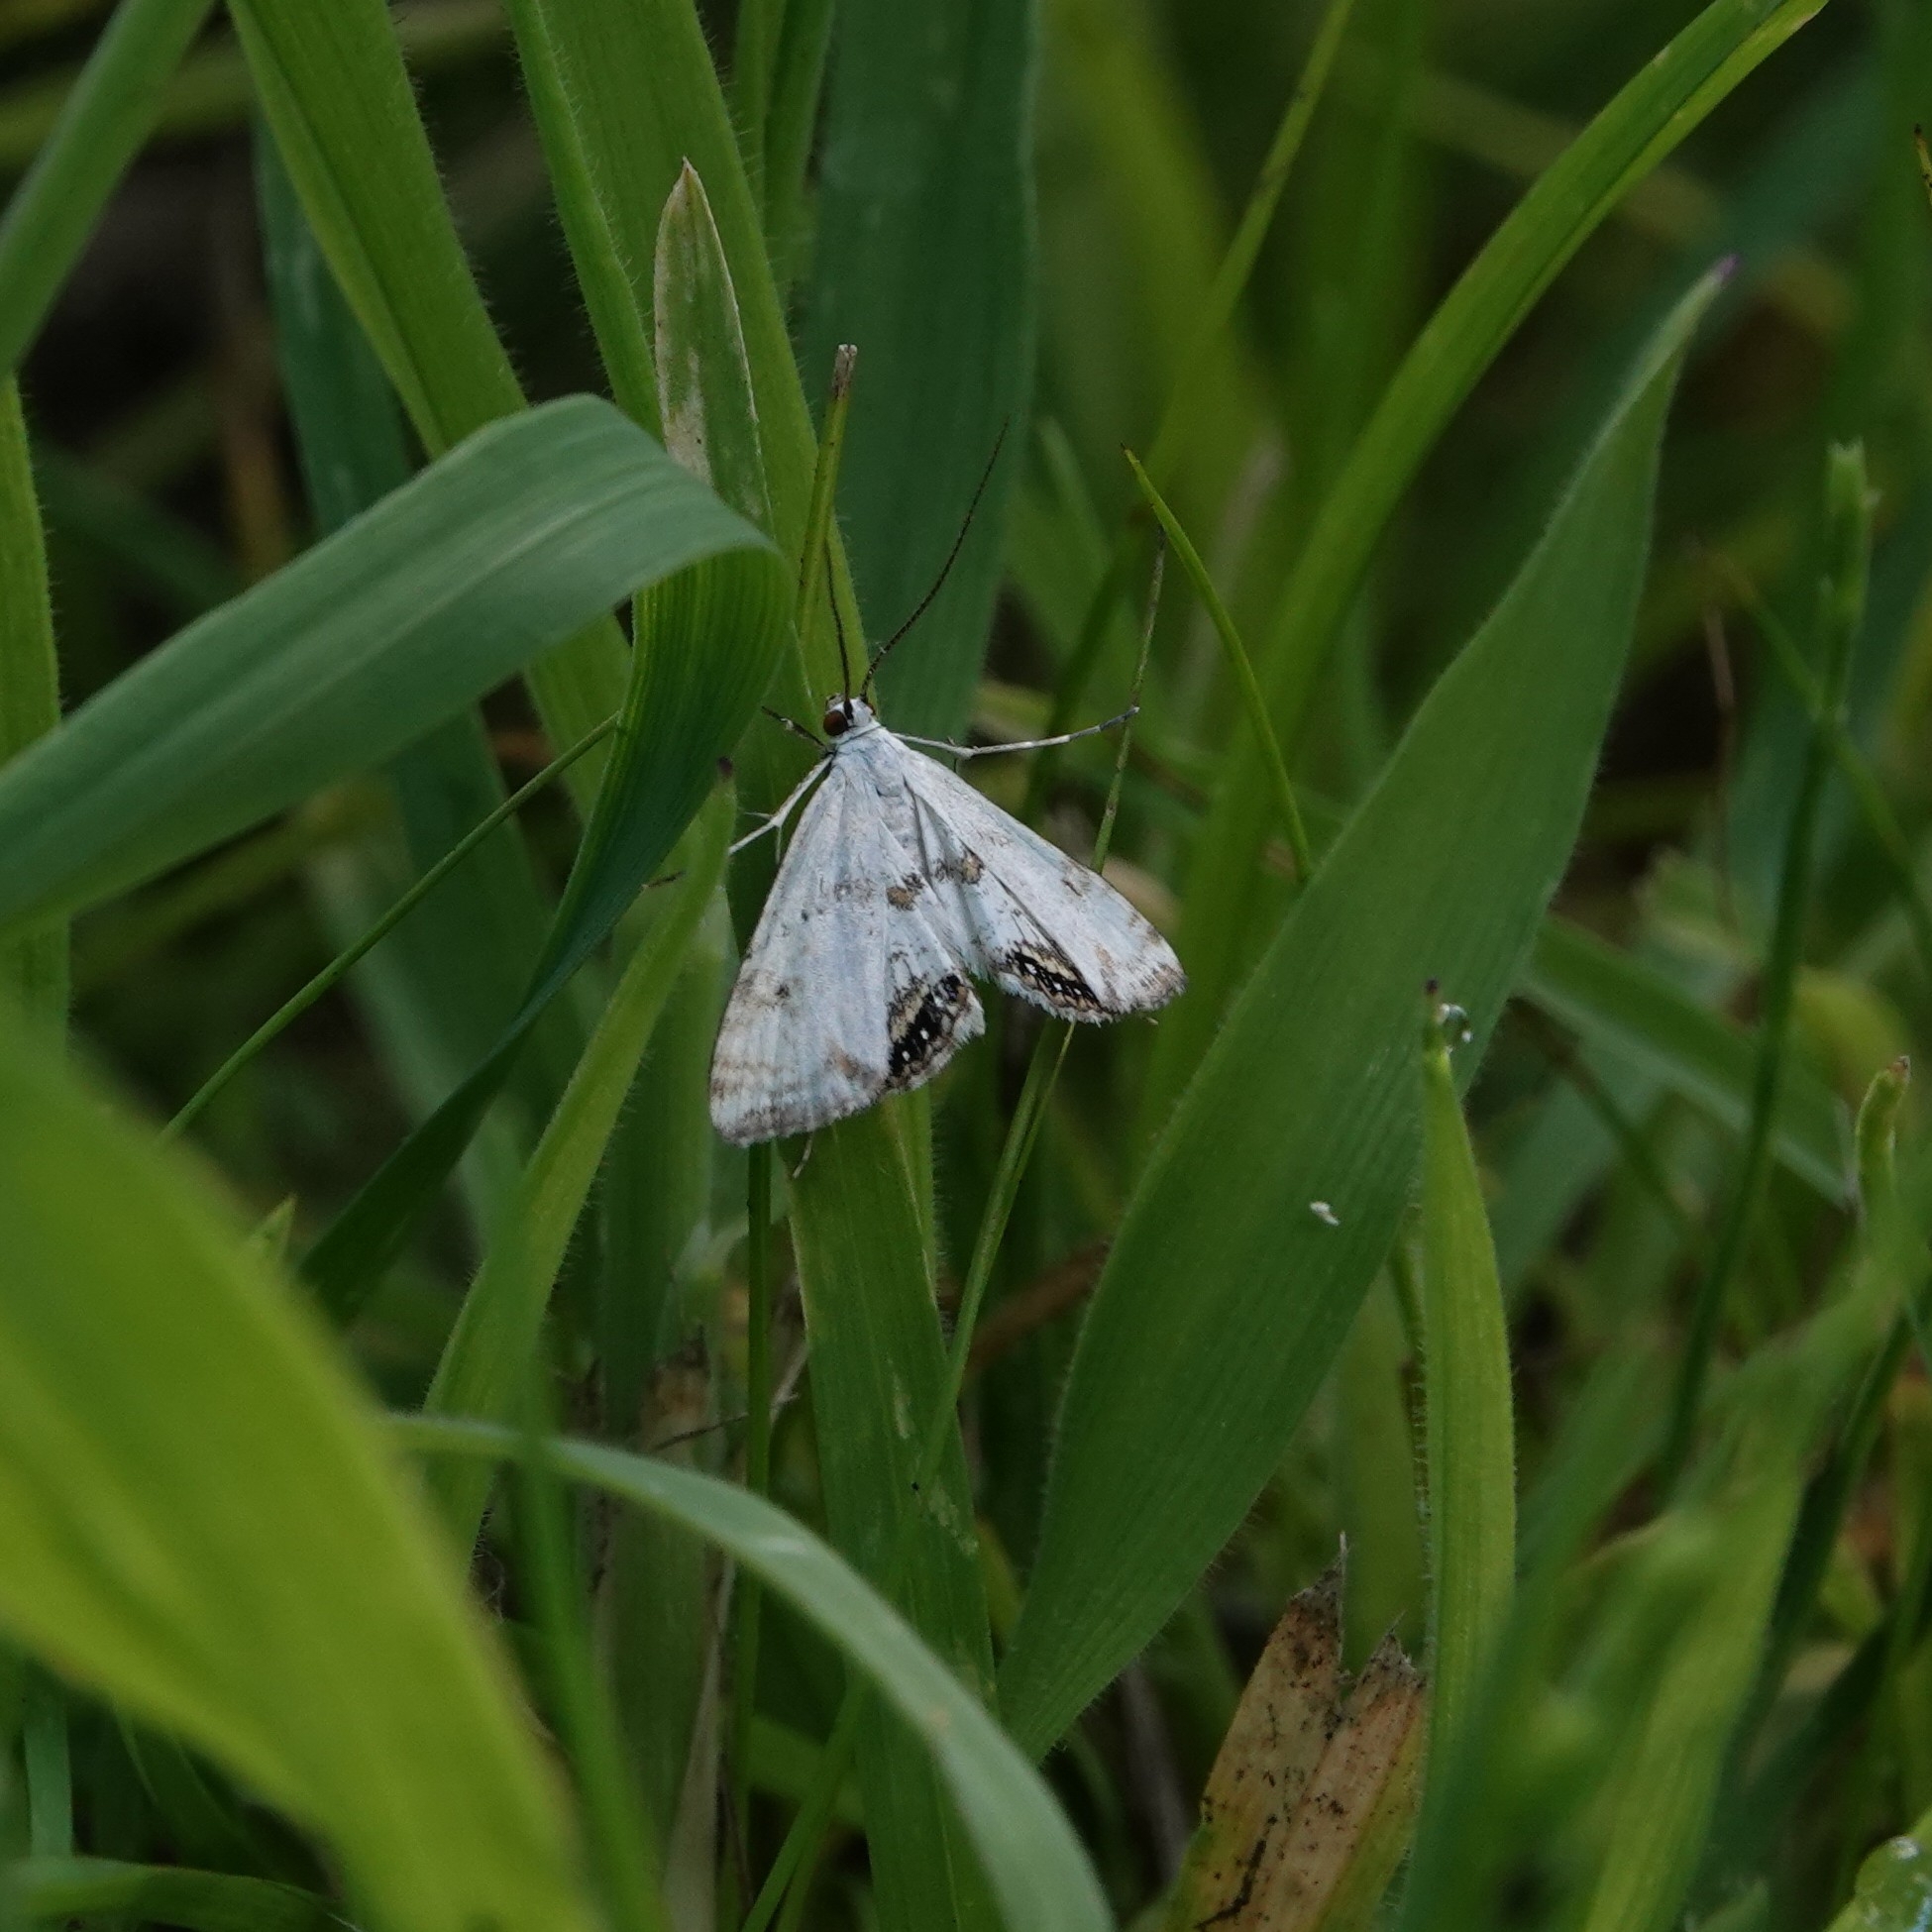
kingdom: Animalia
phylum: Arthropoda
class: Insecta
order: Lepidoptera
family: Crambidae
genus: Cataclysta
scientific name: Cataclysta lemnata
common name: Small china-mark
